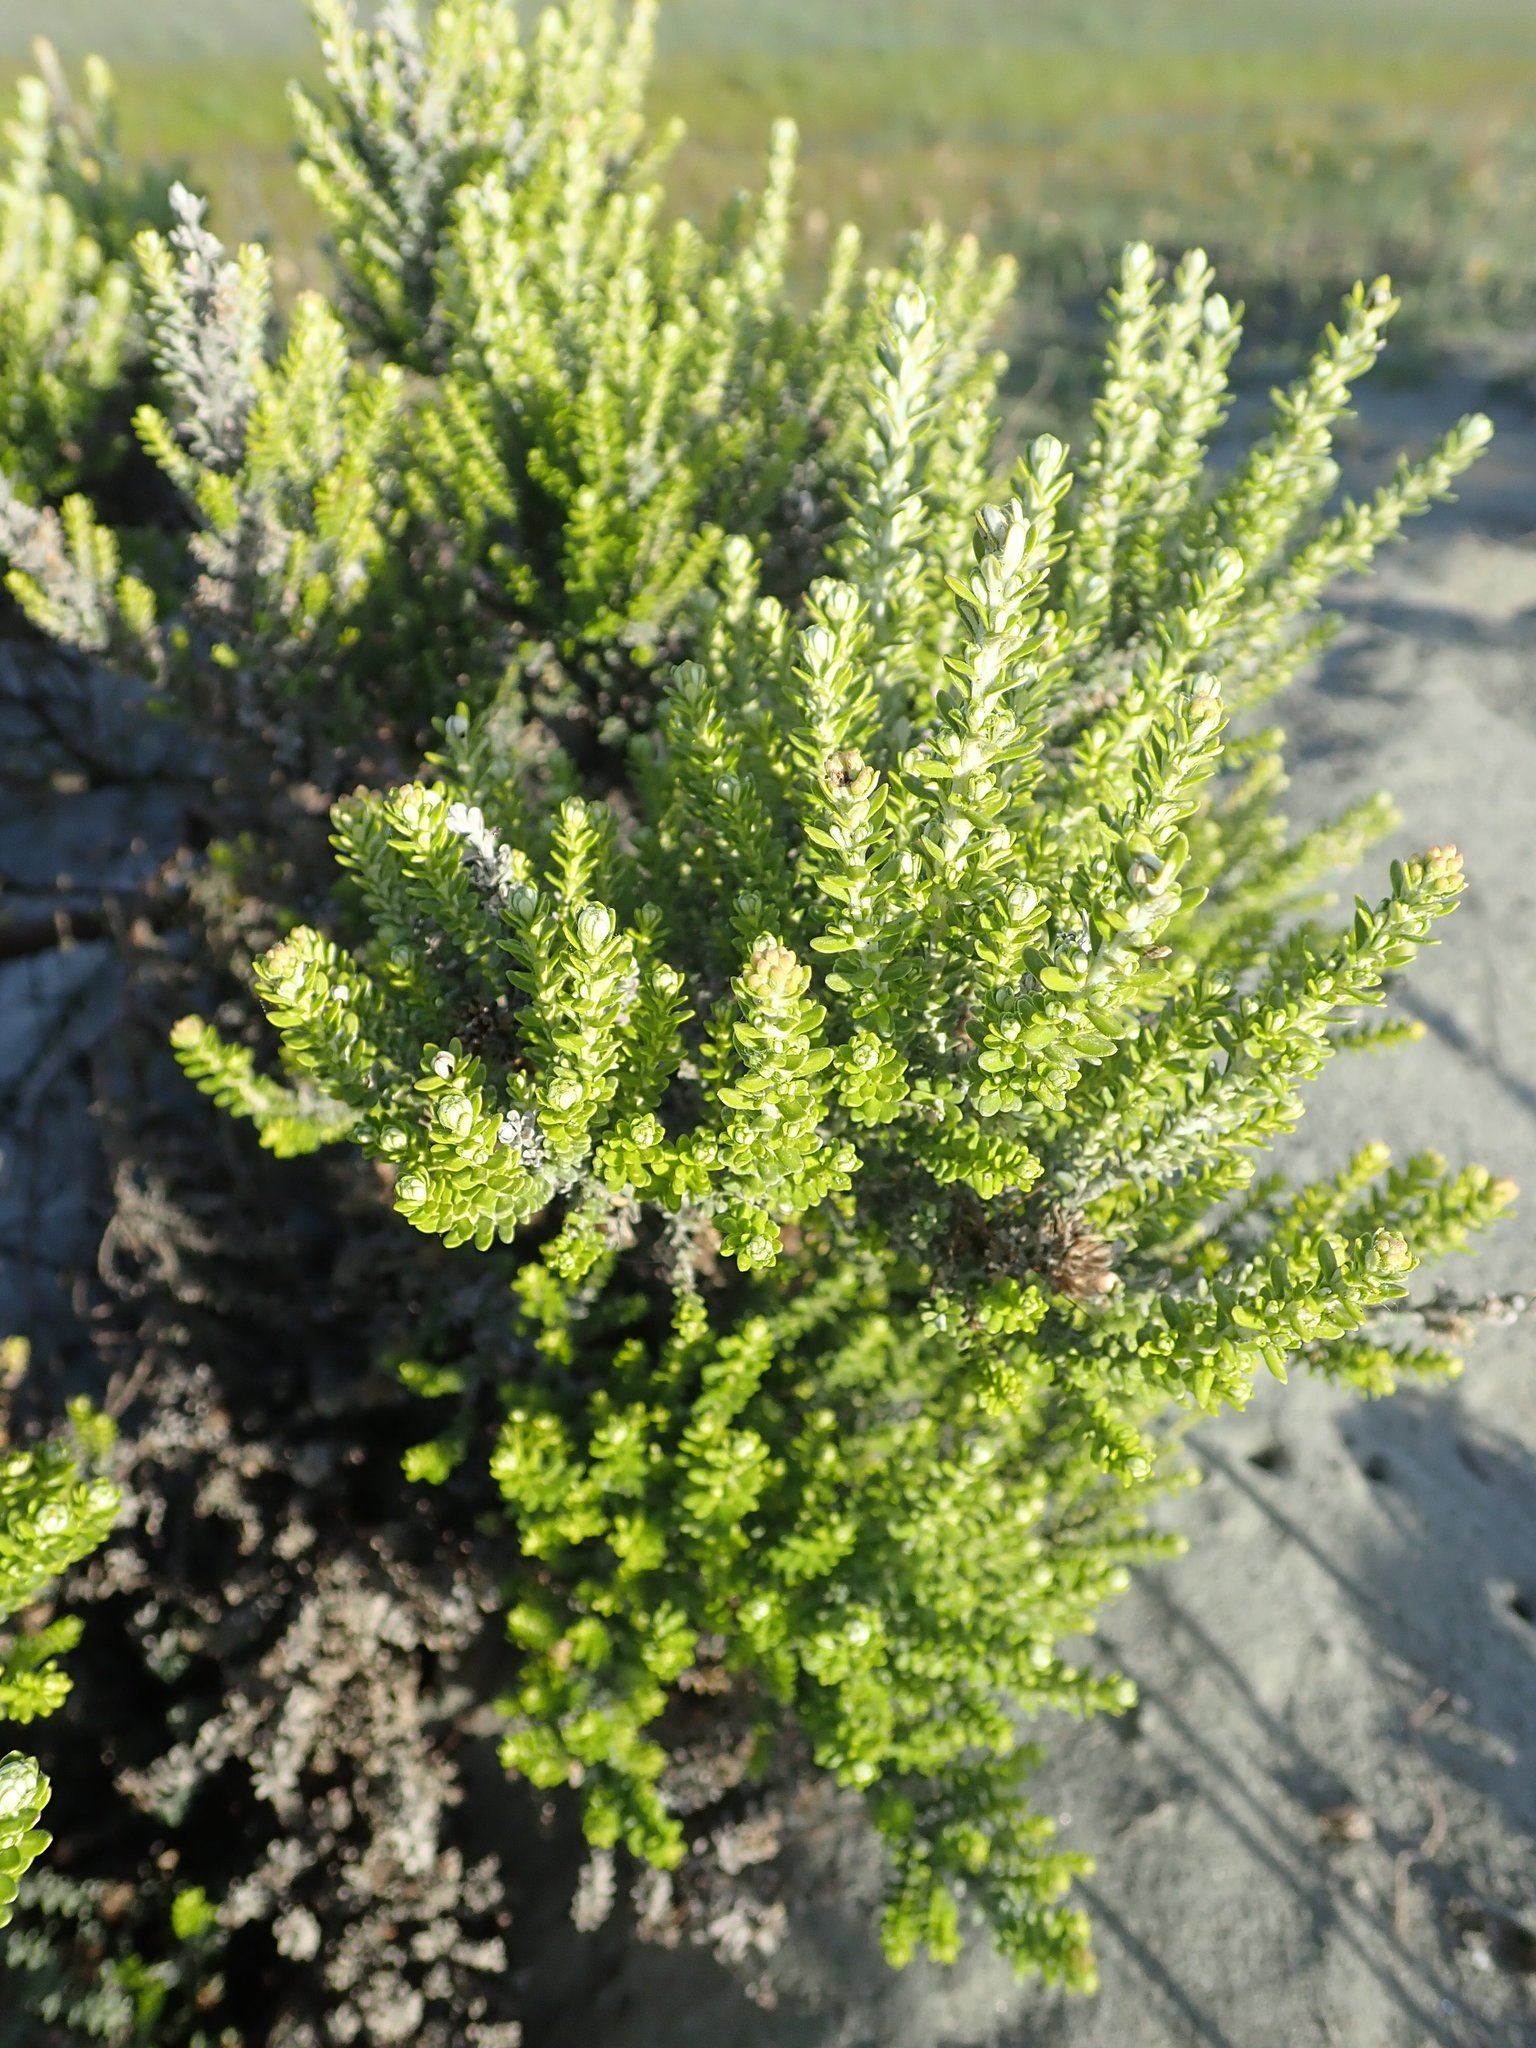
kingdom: Plantae
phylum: Tracheophyta
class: Magnoliopsida
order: Asterales
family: Asteraceae
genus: Ozothamnus
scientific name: Ozothamnus leptophyllus
